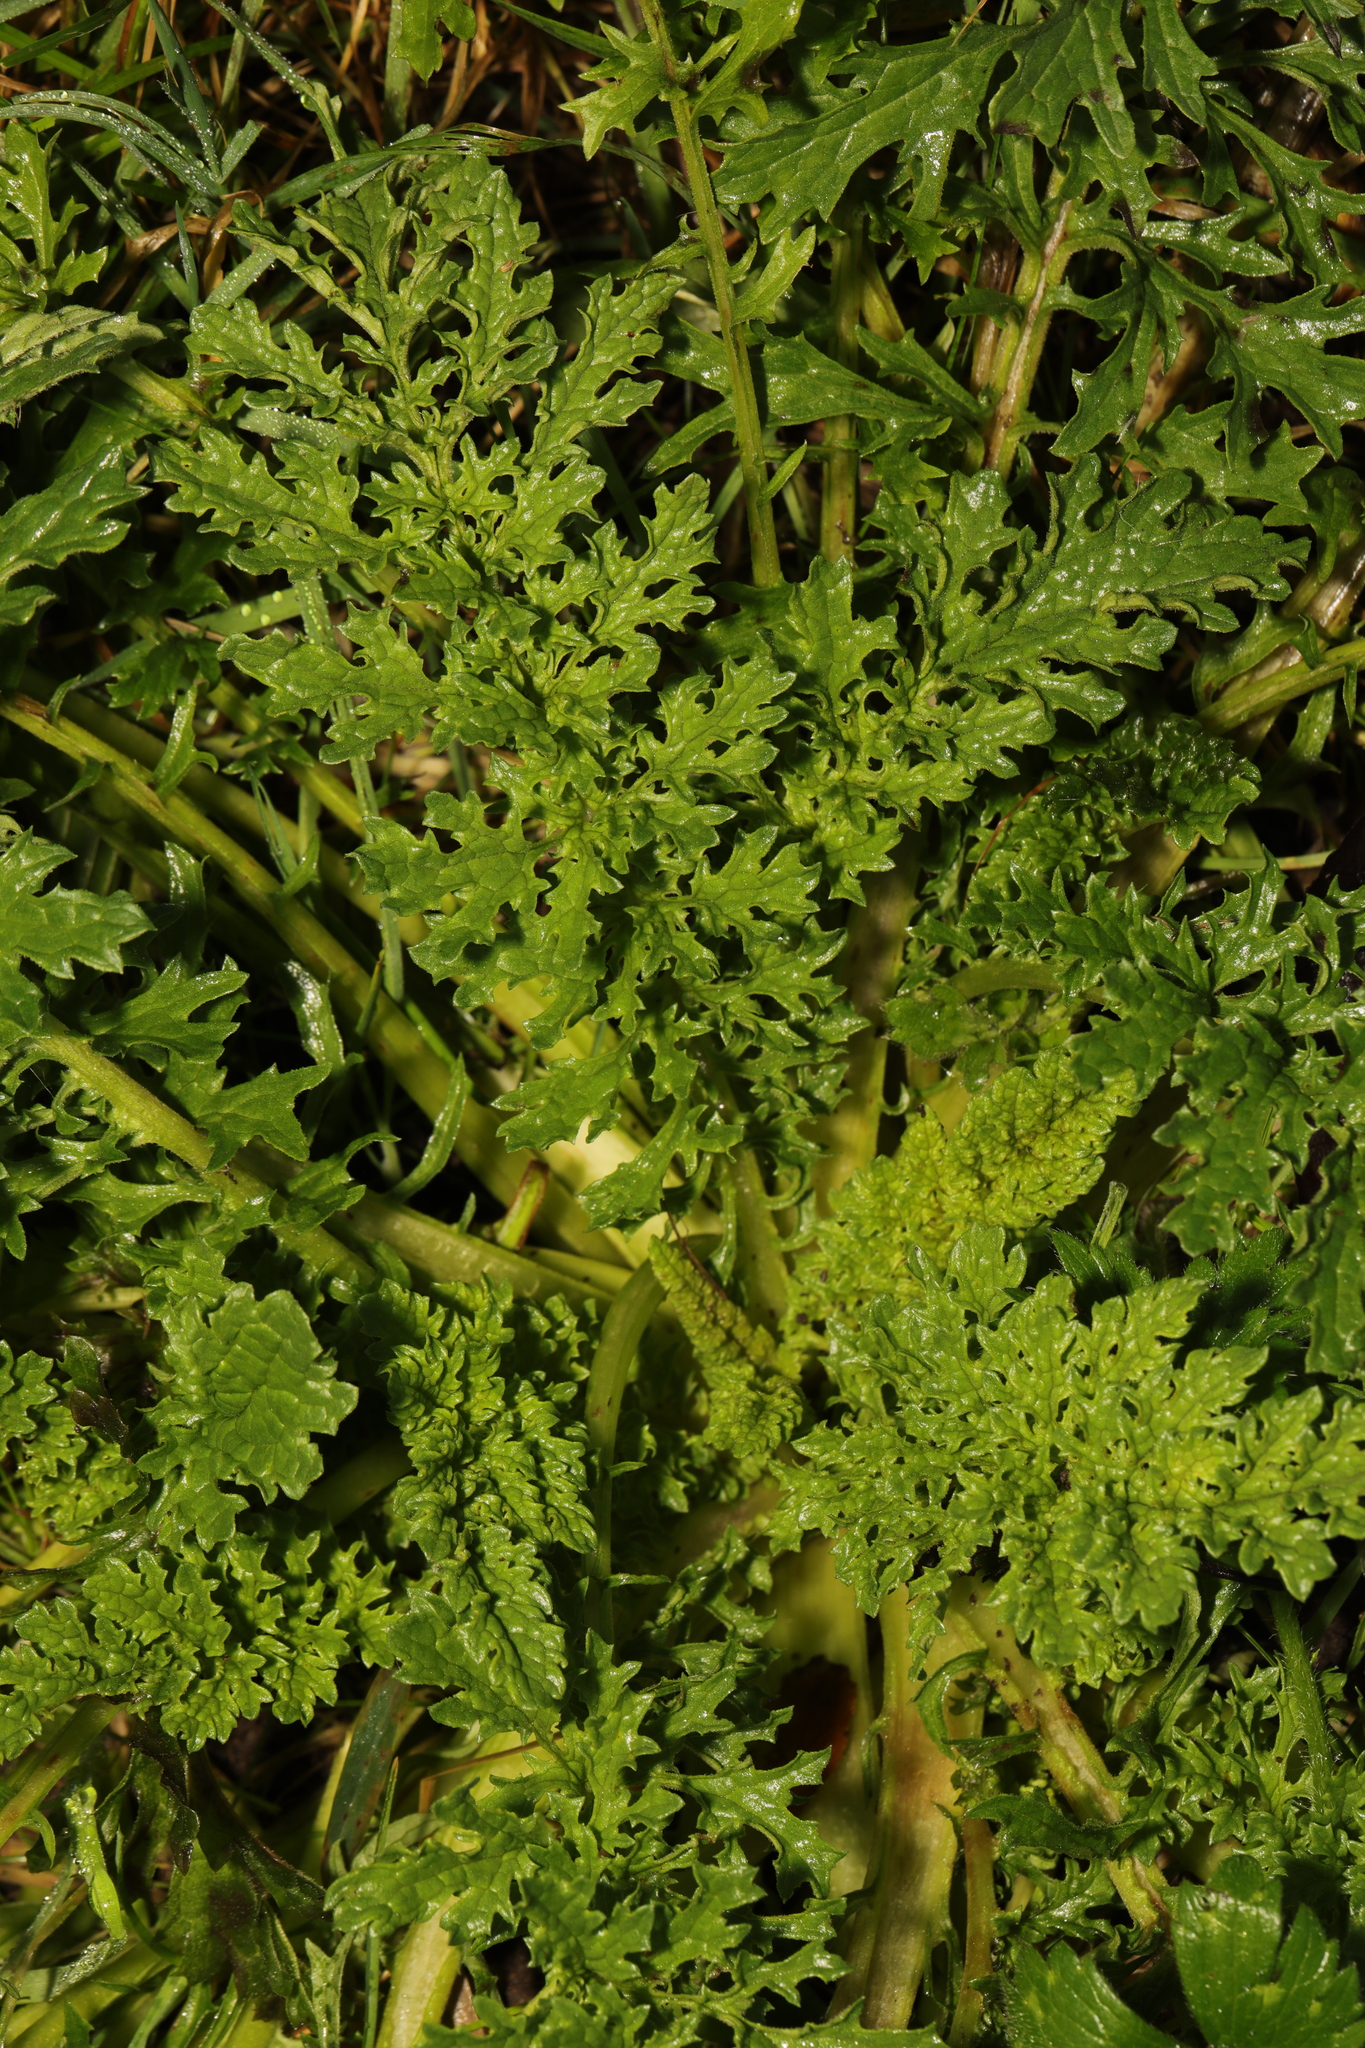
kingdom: Plantae
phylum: Tracheophyta
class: Magnoliopsida
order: Asterales
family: Asteraceae
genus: Jacobaea
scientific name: Jacobaea vulgaris
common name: Stinking willie
